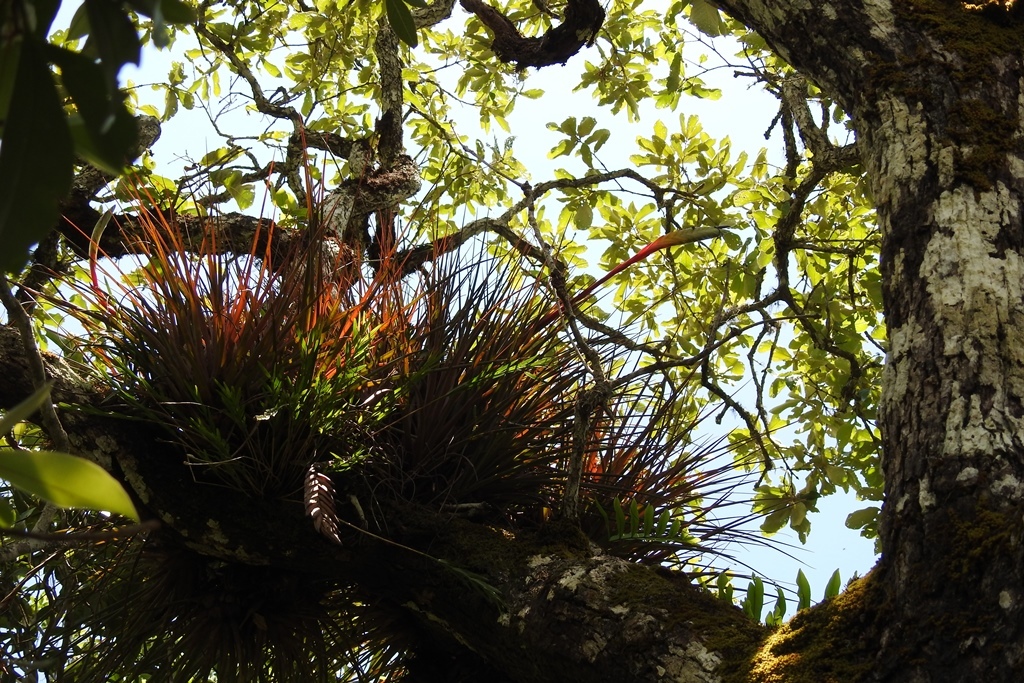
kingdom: Plantae
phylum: Tracheophyta
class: Liliopsida
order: Poales
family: Bromeliaceae
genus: Tillandsia
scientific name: Tillandsia tricolor
